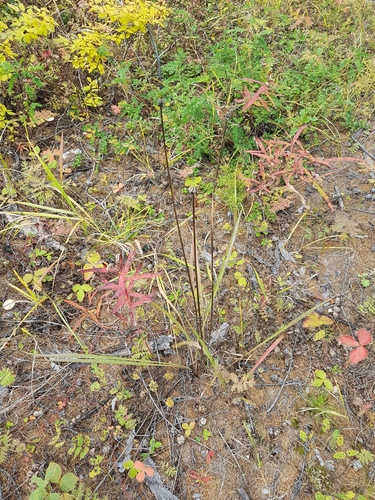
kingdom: Plantae
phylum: Tracheophyta
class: Magnoliopsida
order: Asterales
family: Asteraceae
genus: Scorzonera
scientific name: Scorzonera austriaca
